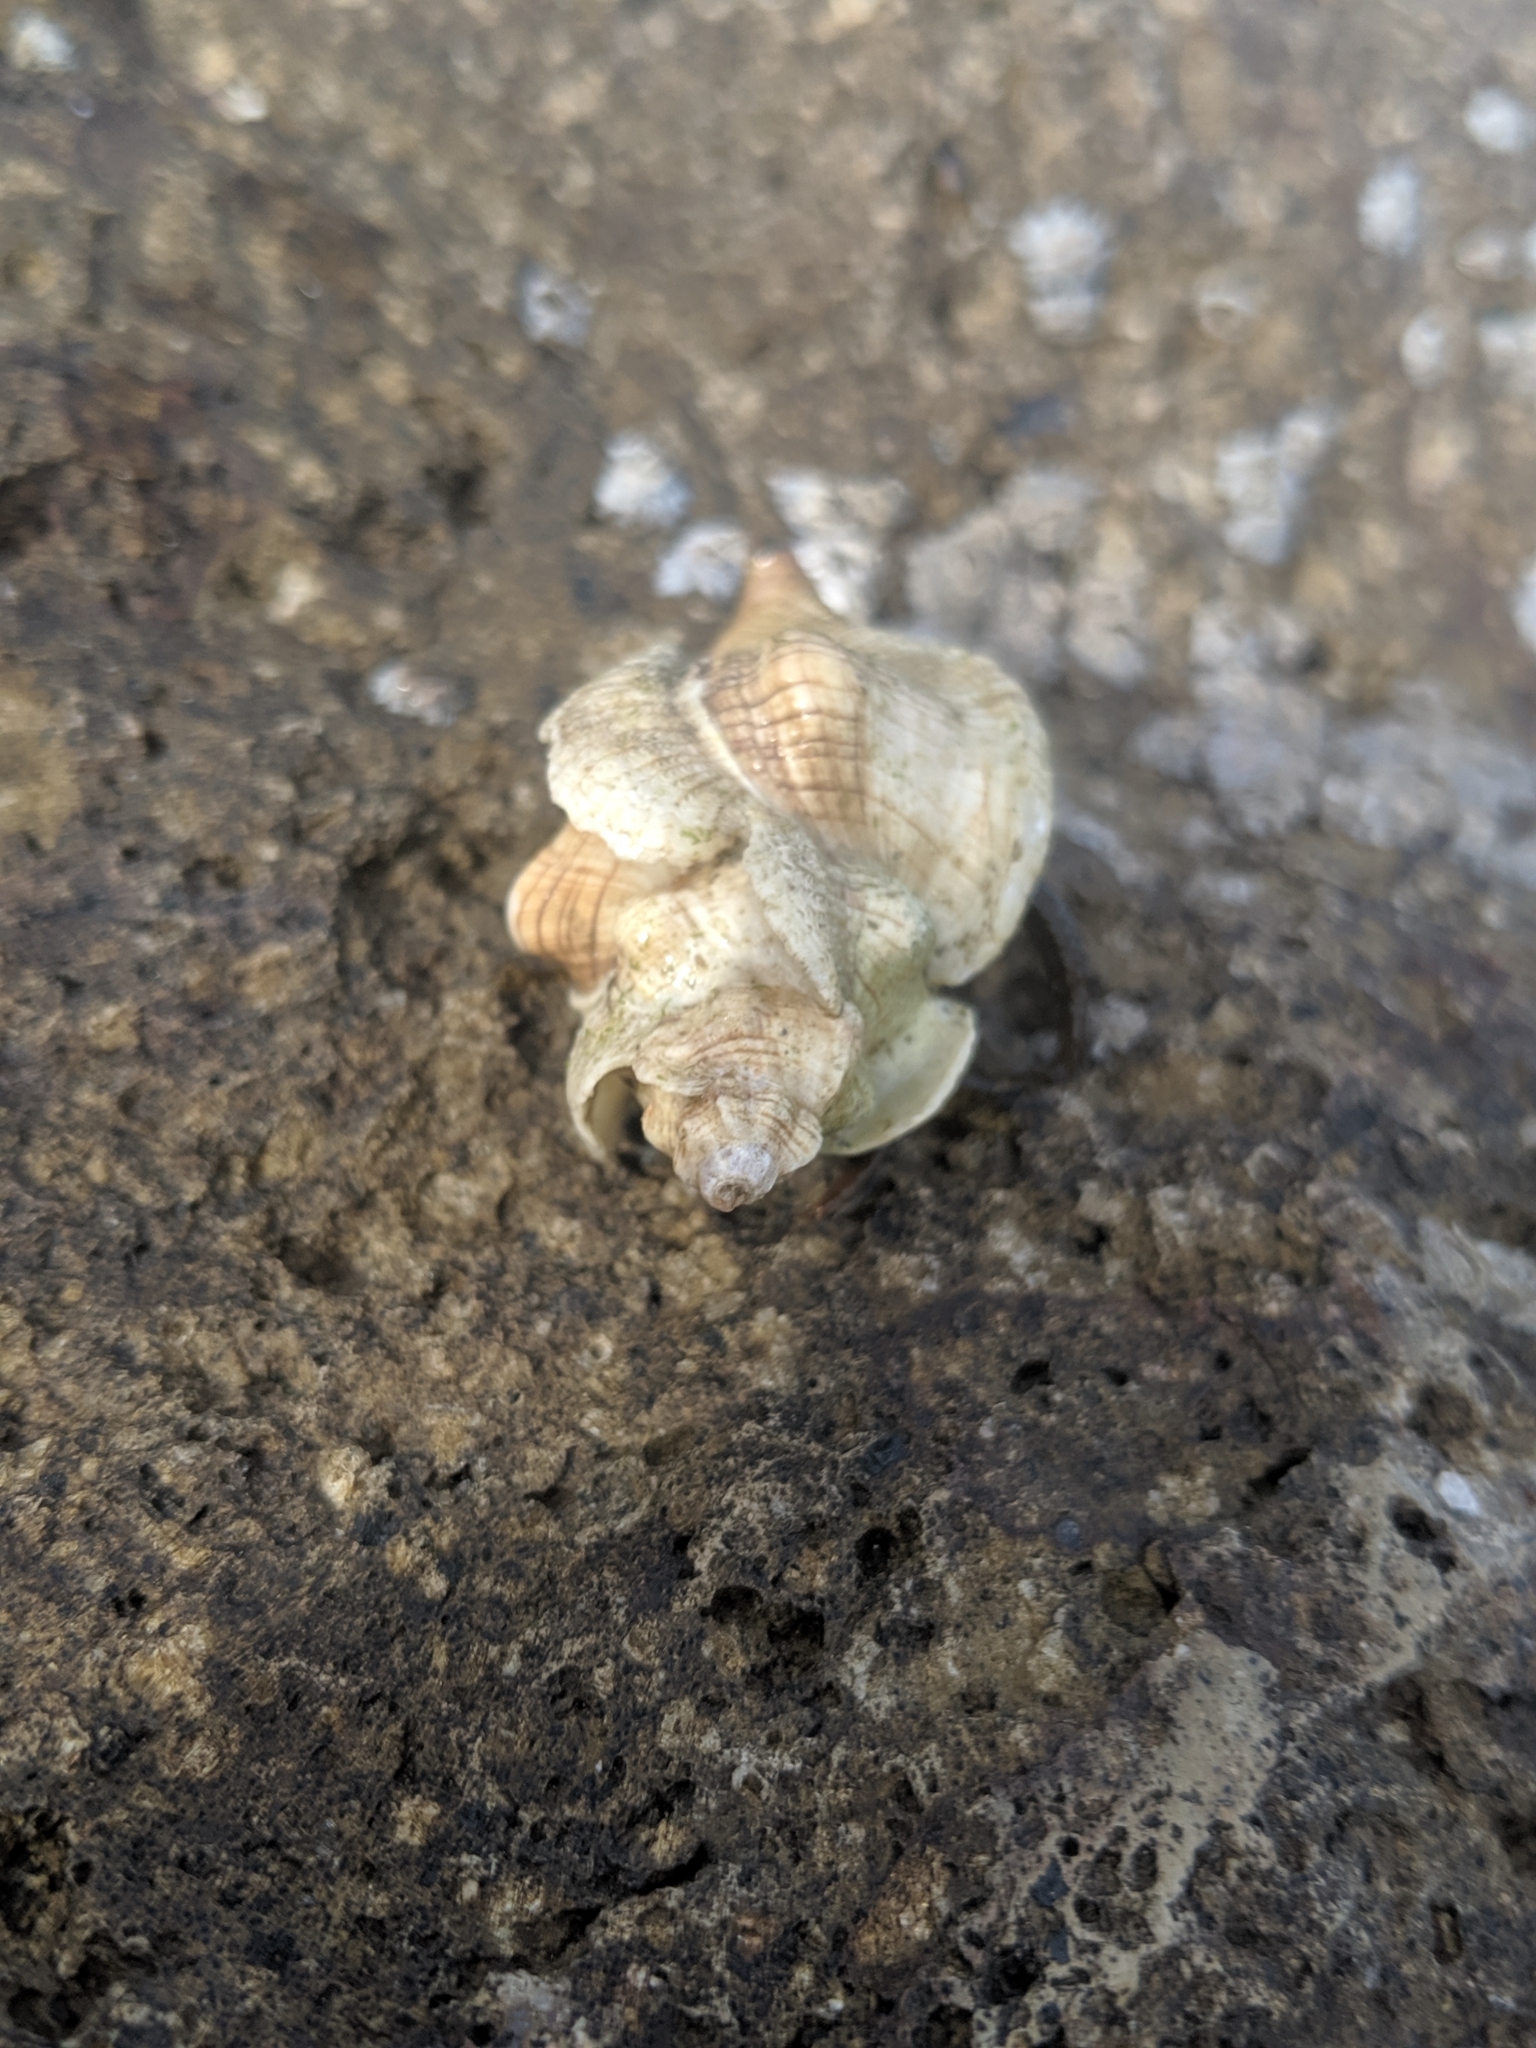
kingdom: Animalia
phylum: Mollusca
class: Gastropoda
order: Neogastropoda
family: Muricidae
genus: Pteropurpura
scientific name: Pteropurpura festiva
